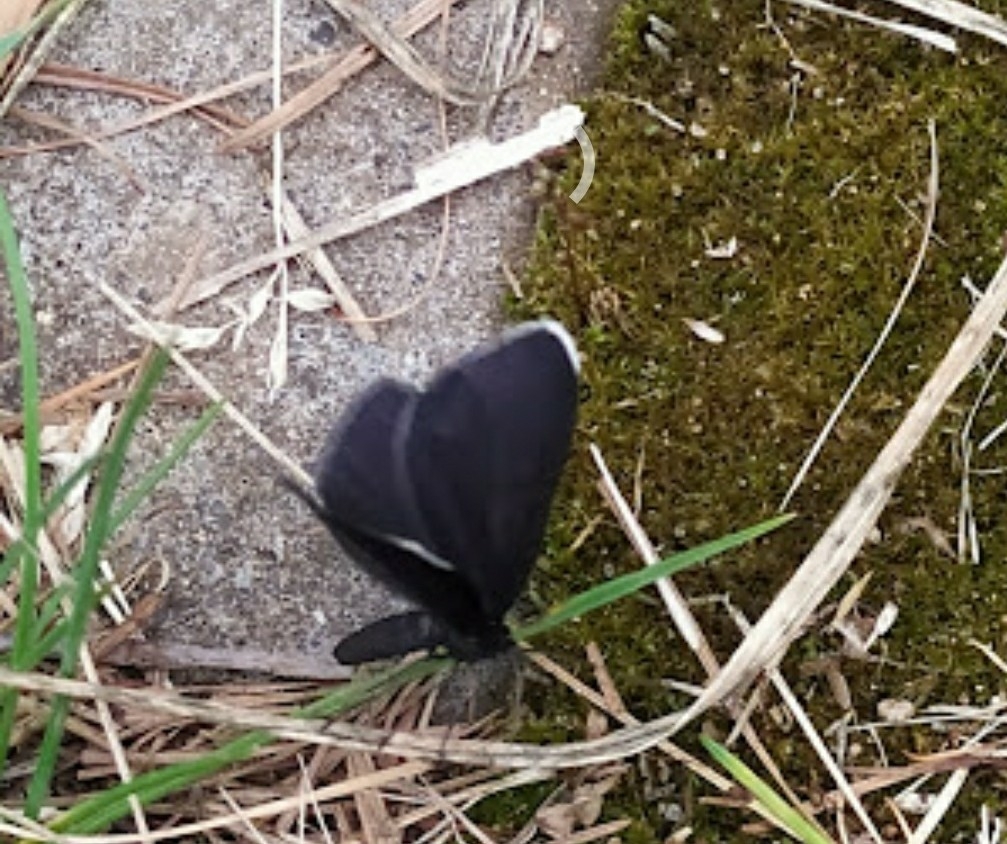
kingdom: Animalia
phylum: Arthropoda
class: Insecta
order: Lepidoptera
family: Geometridae
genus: Odezia
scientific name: Odezia atrata
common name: Chimney sweeper
